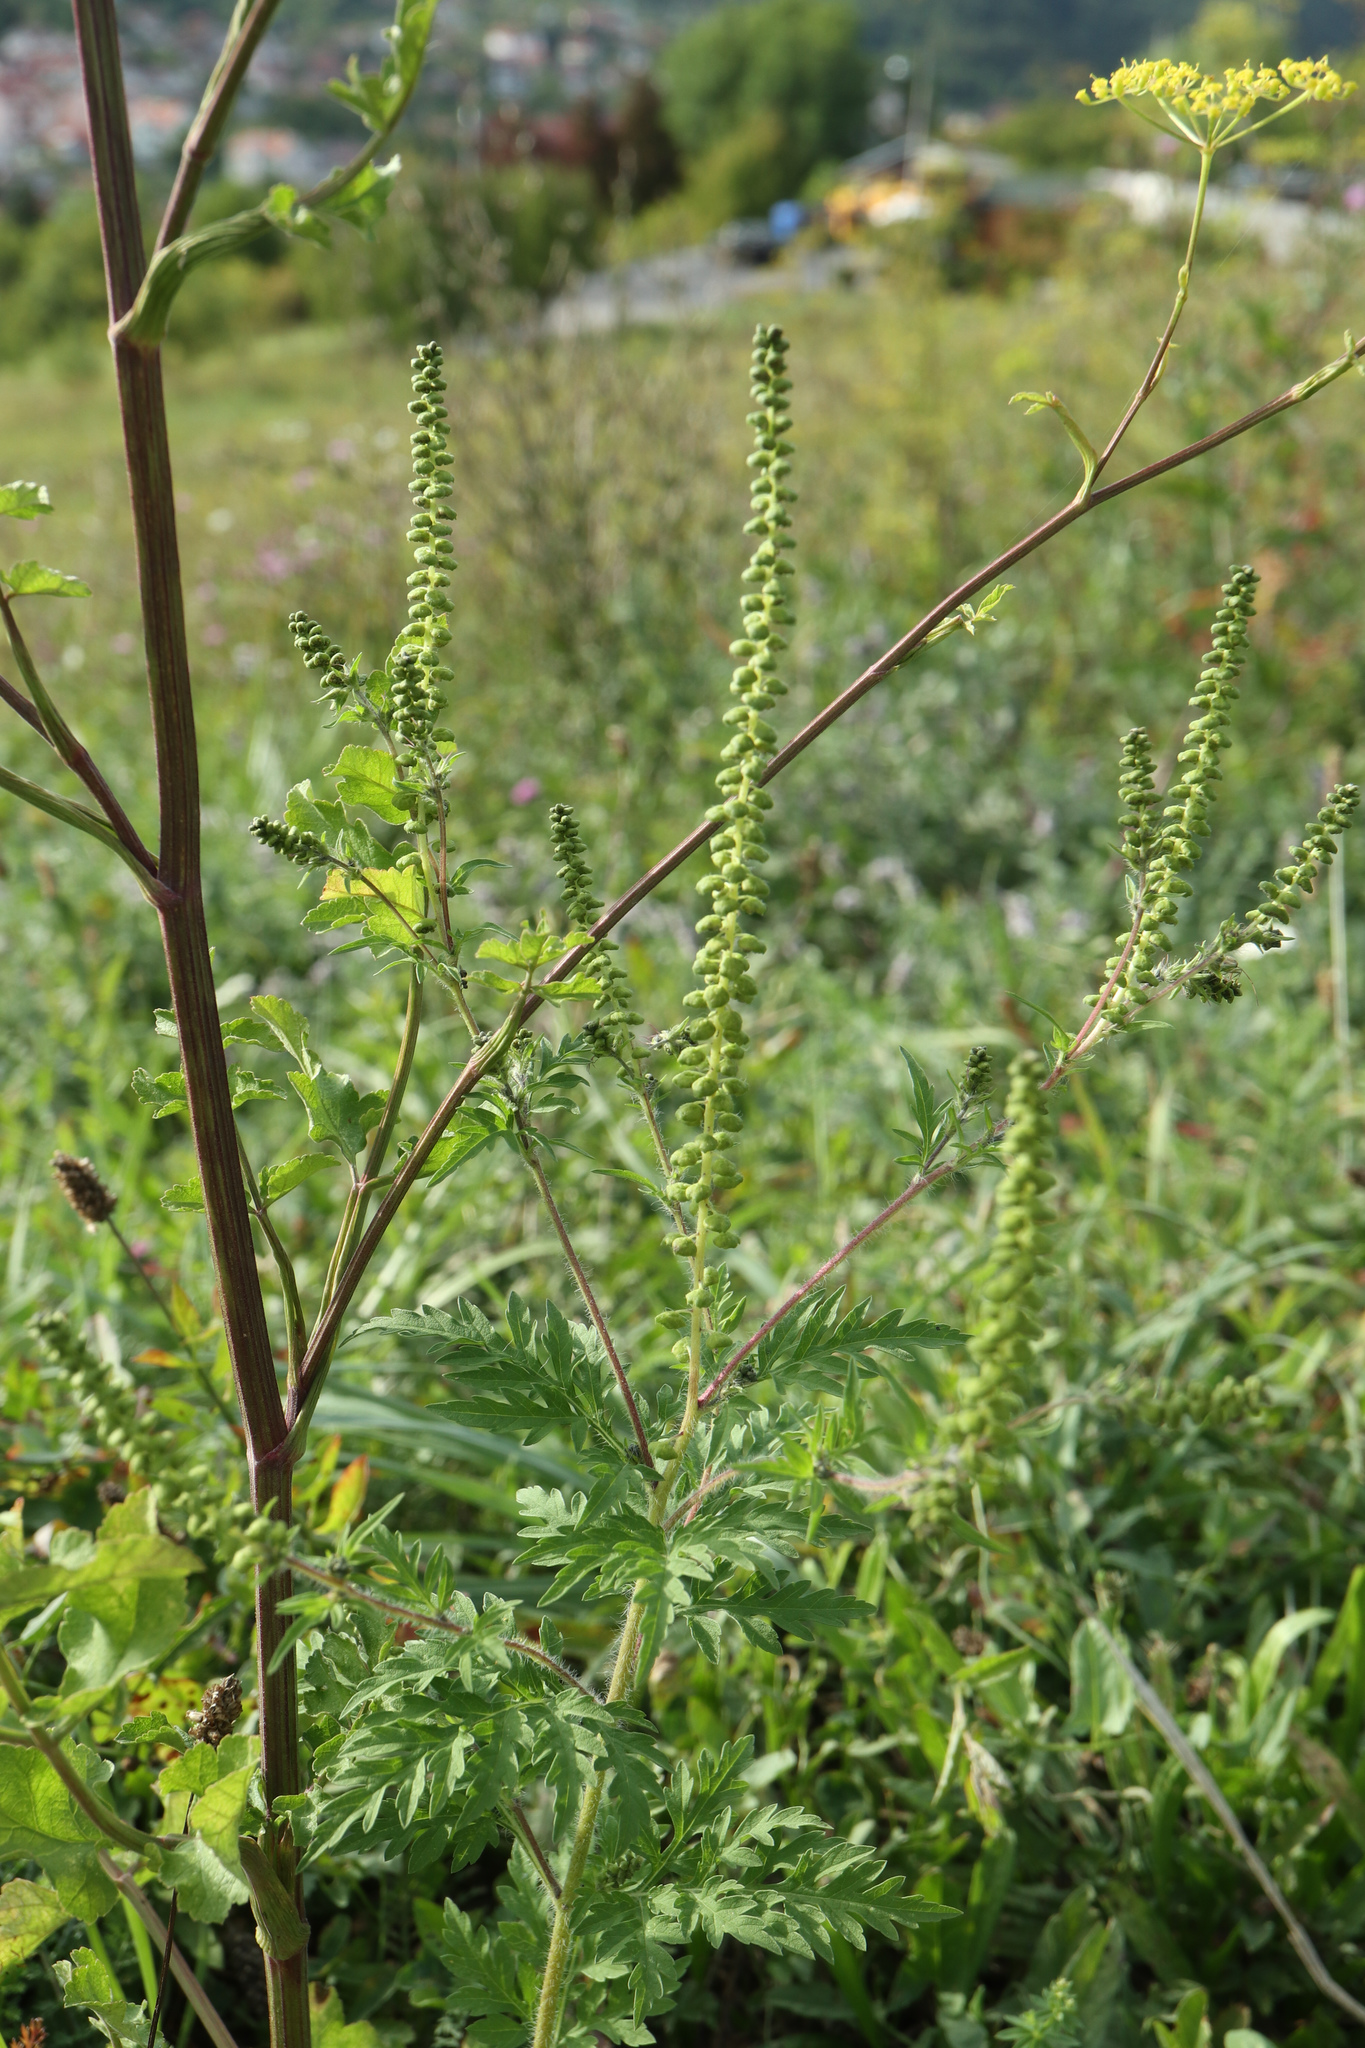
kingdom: Plantae
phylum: Tracheophyta
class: Magnoliopsida
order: Asterales
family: Asteraceae
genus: Ambrosia
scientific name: Ambrosia artemisiifolia
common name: Annual ragweed
